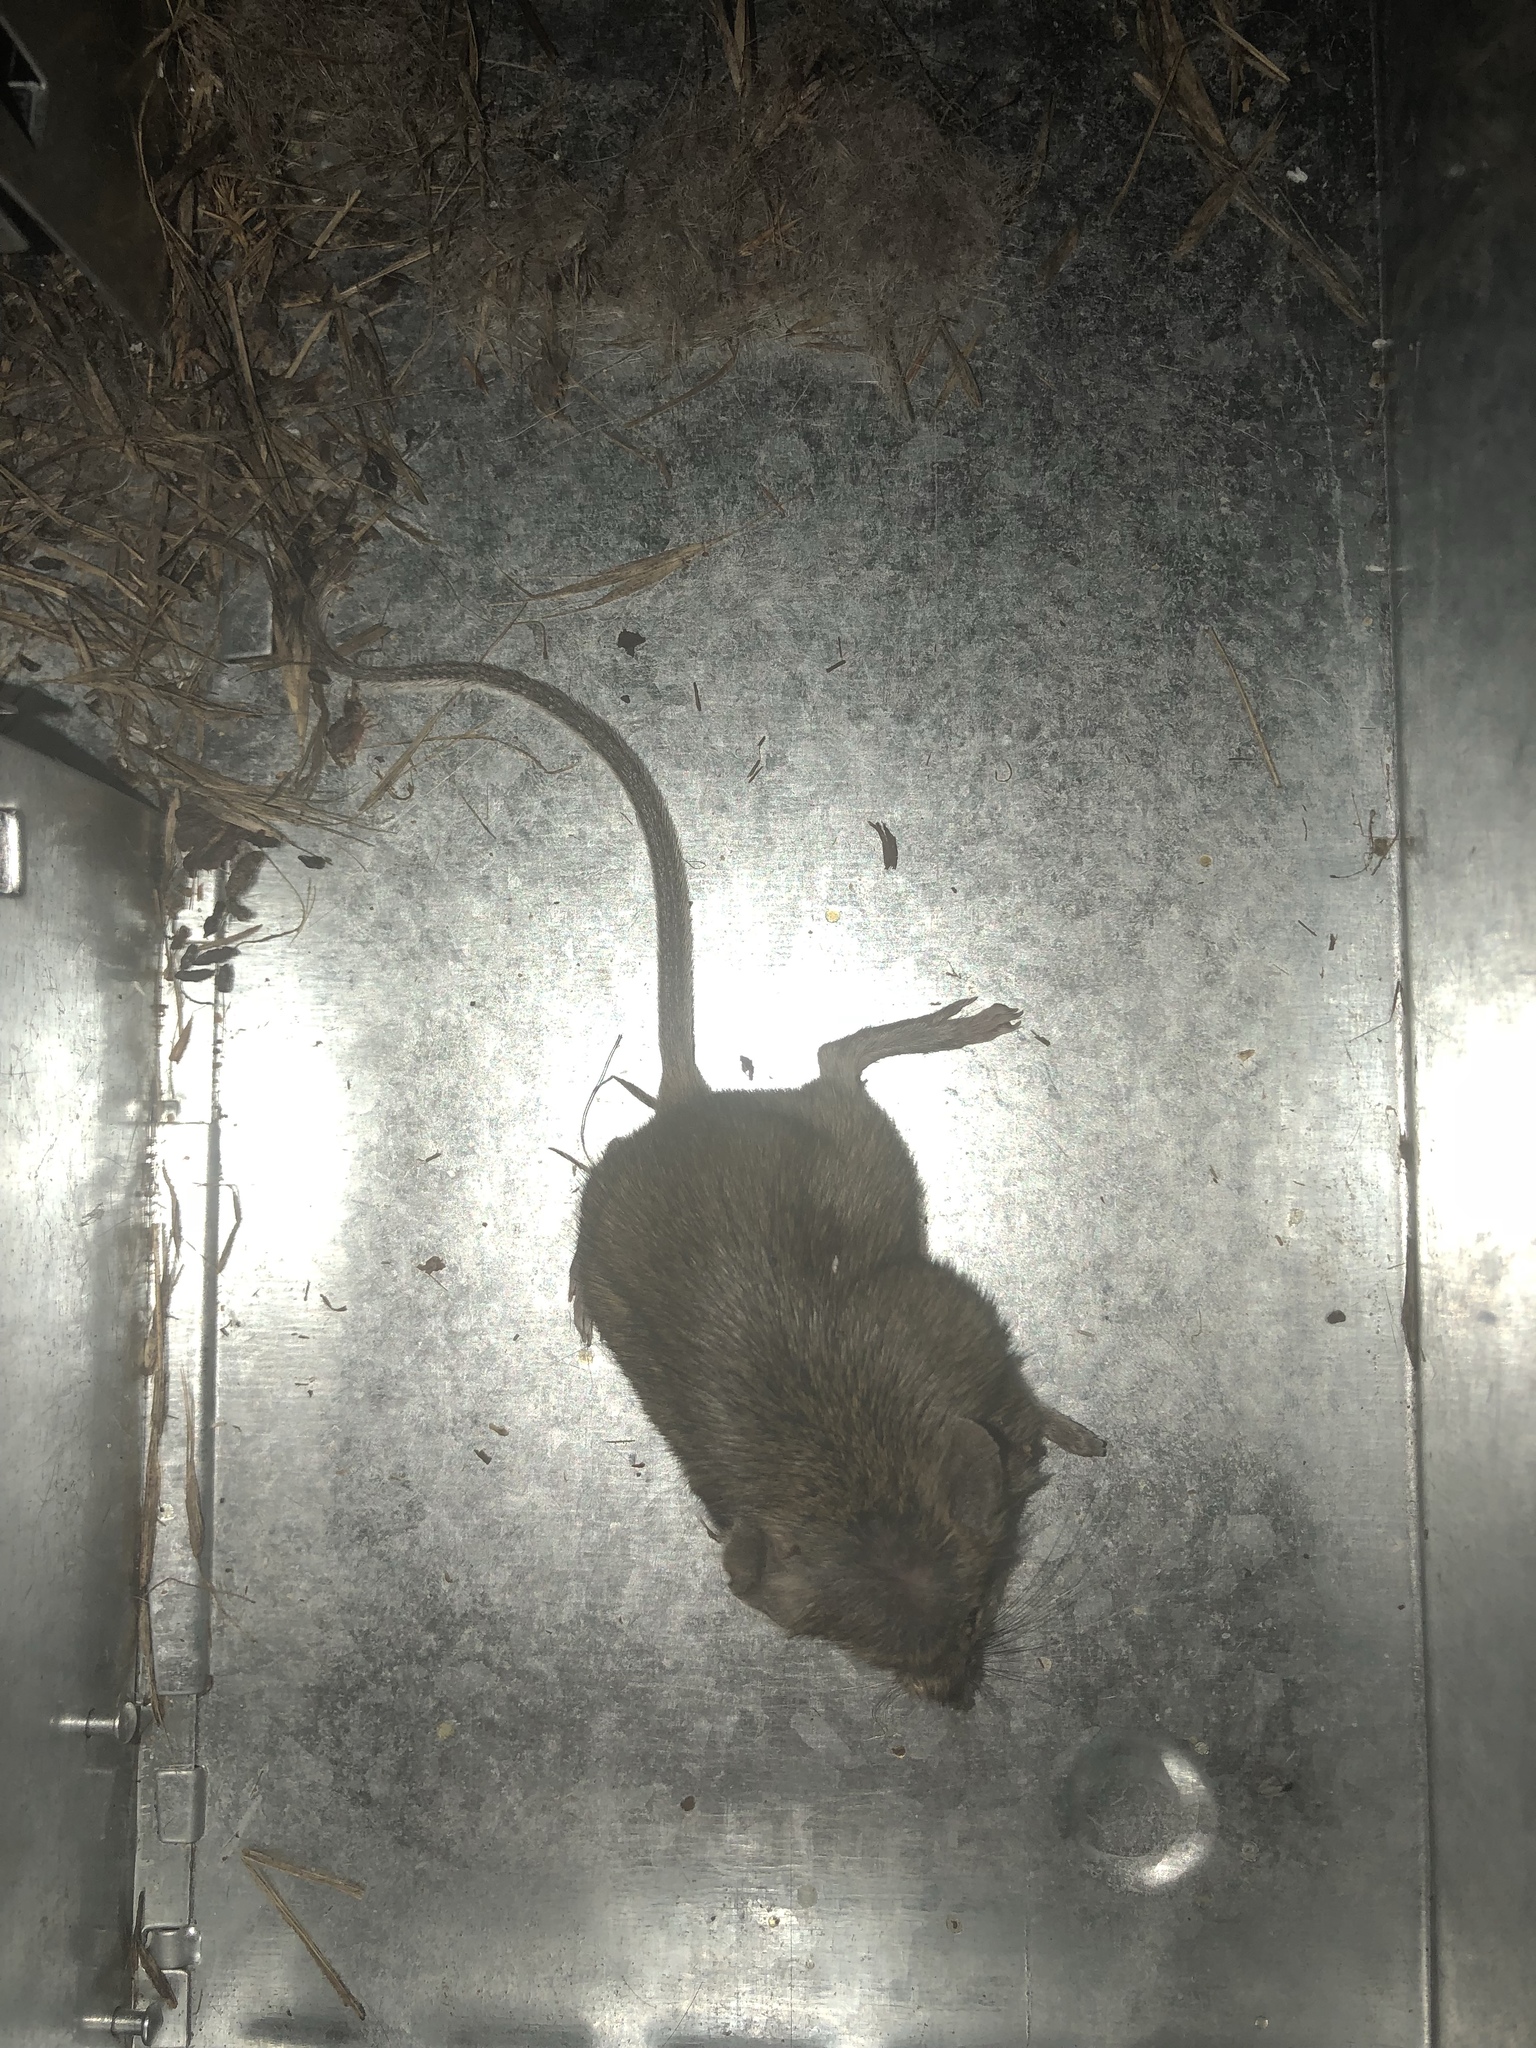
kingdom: Animalia
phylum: Chordata
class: Mammalia
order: Rodentia
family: Muridae
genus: Mus
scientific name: Mus musculus
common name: House mouse
